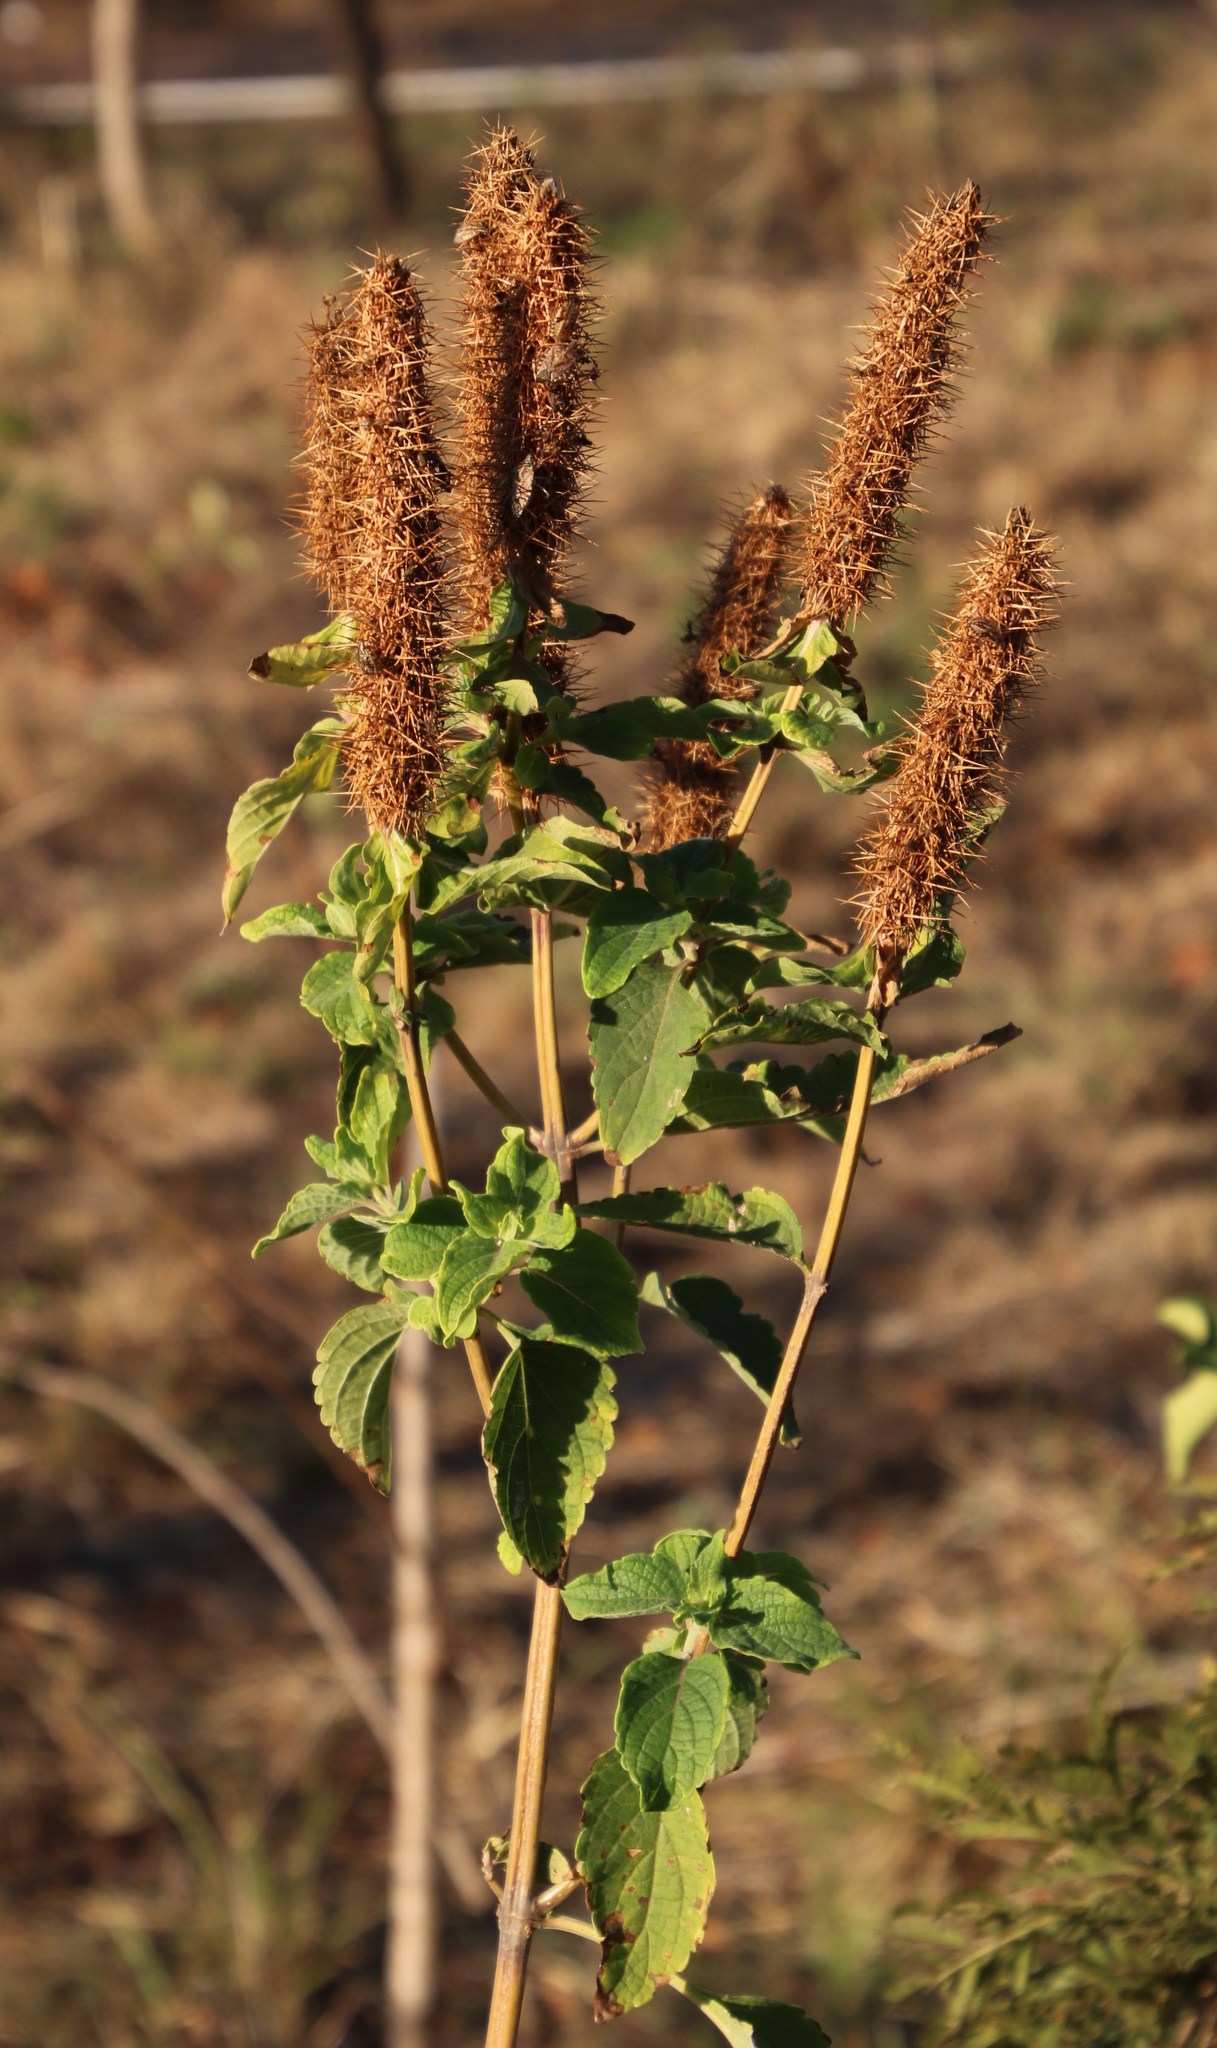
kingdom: Plantae
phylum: Tracheophyta
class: Magnoliopsida
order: Lamiales
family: Lamiaceae
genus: Coleus
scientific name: Coleus kirkii
